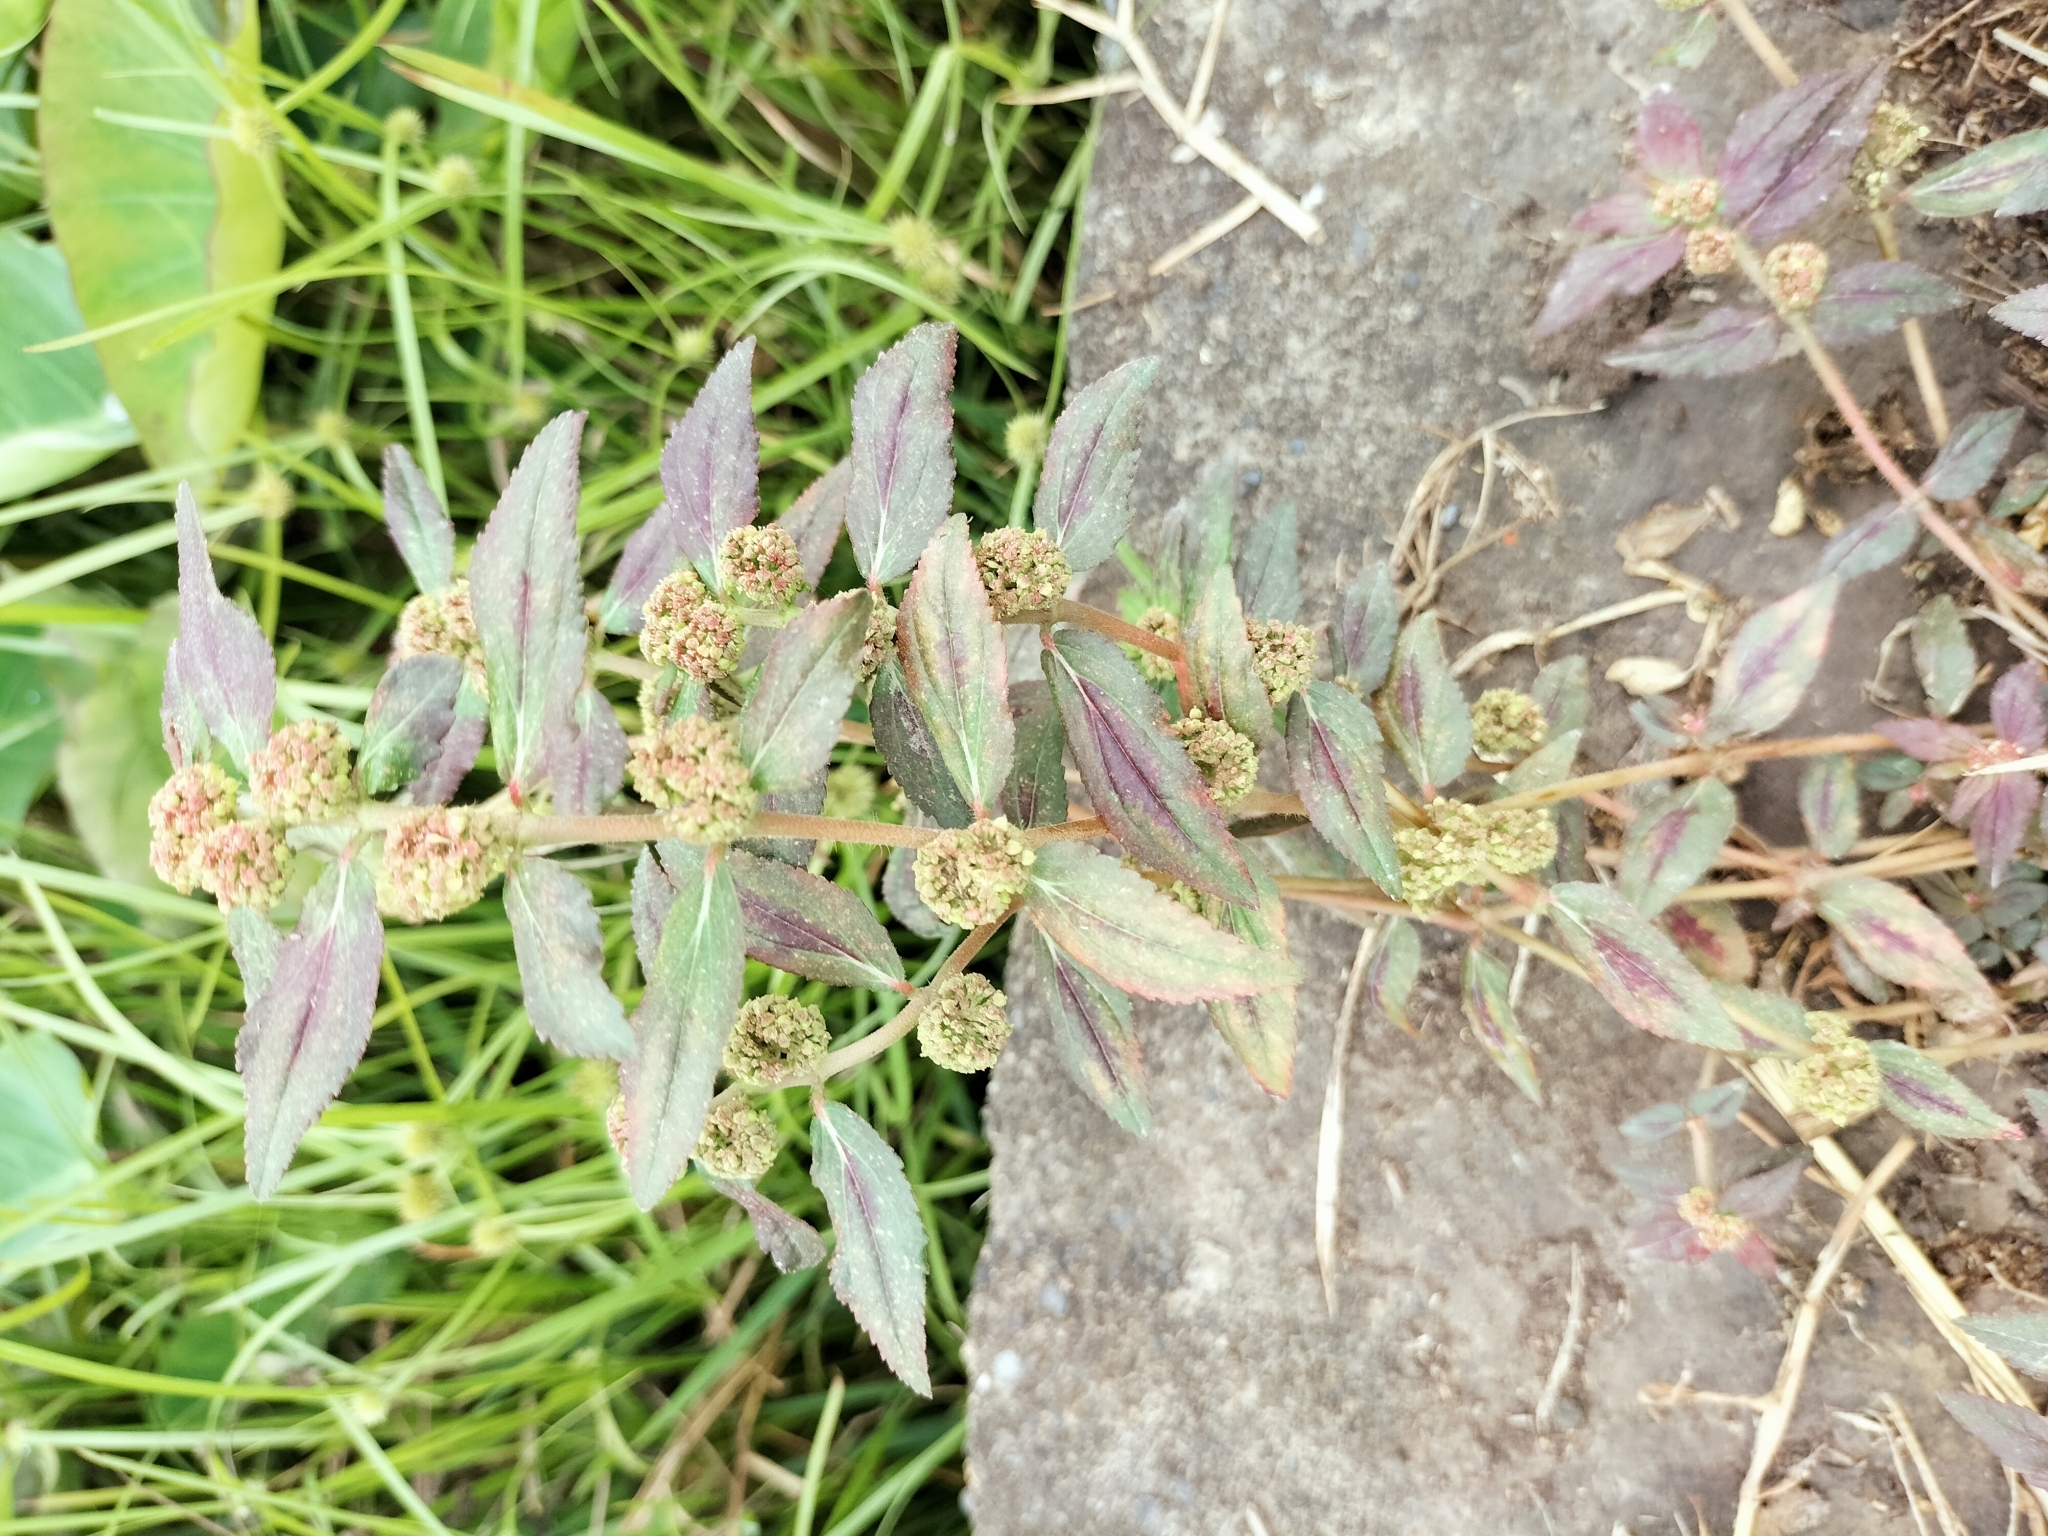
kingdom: Plantae
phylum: Tracheophyta
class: Magnoliopsida
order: Malpighiales
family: Euphorbiaceae
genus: Euphorbia
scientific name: Euphorbia hirta
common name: Pillpod sandmat
